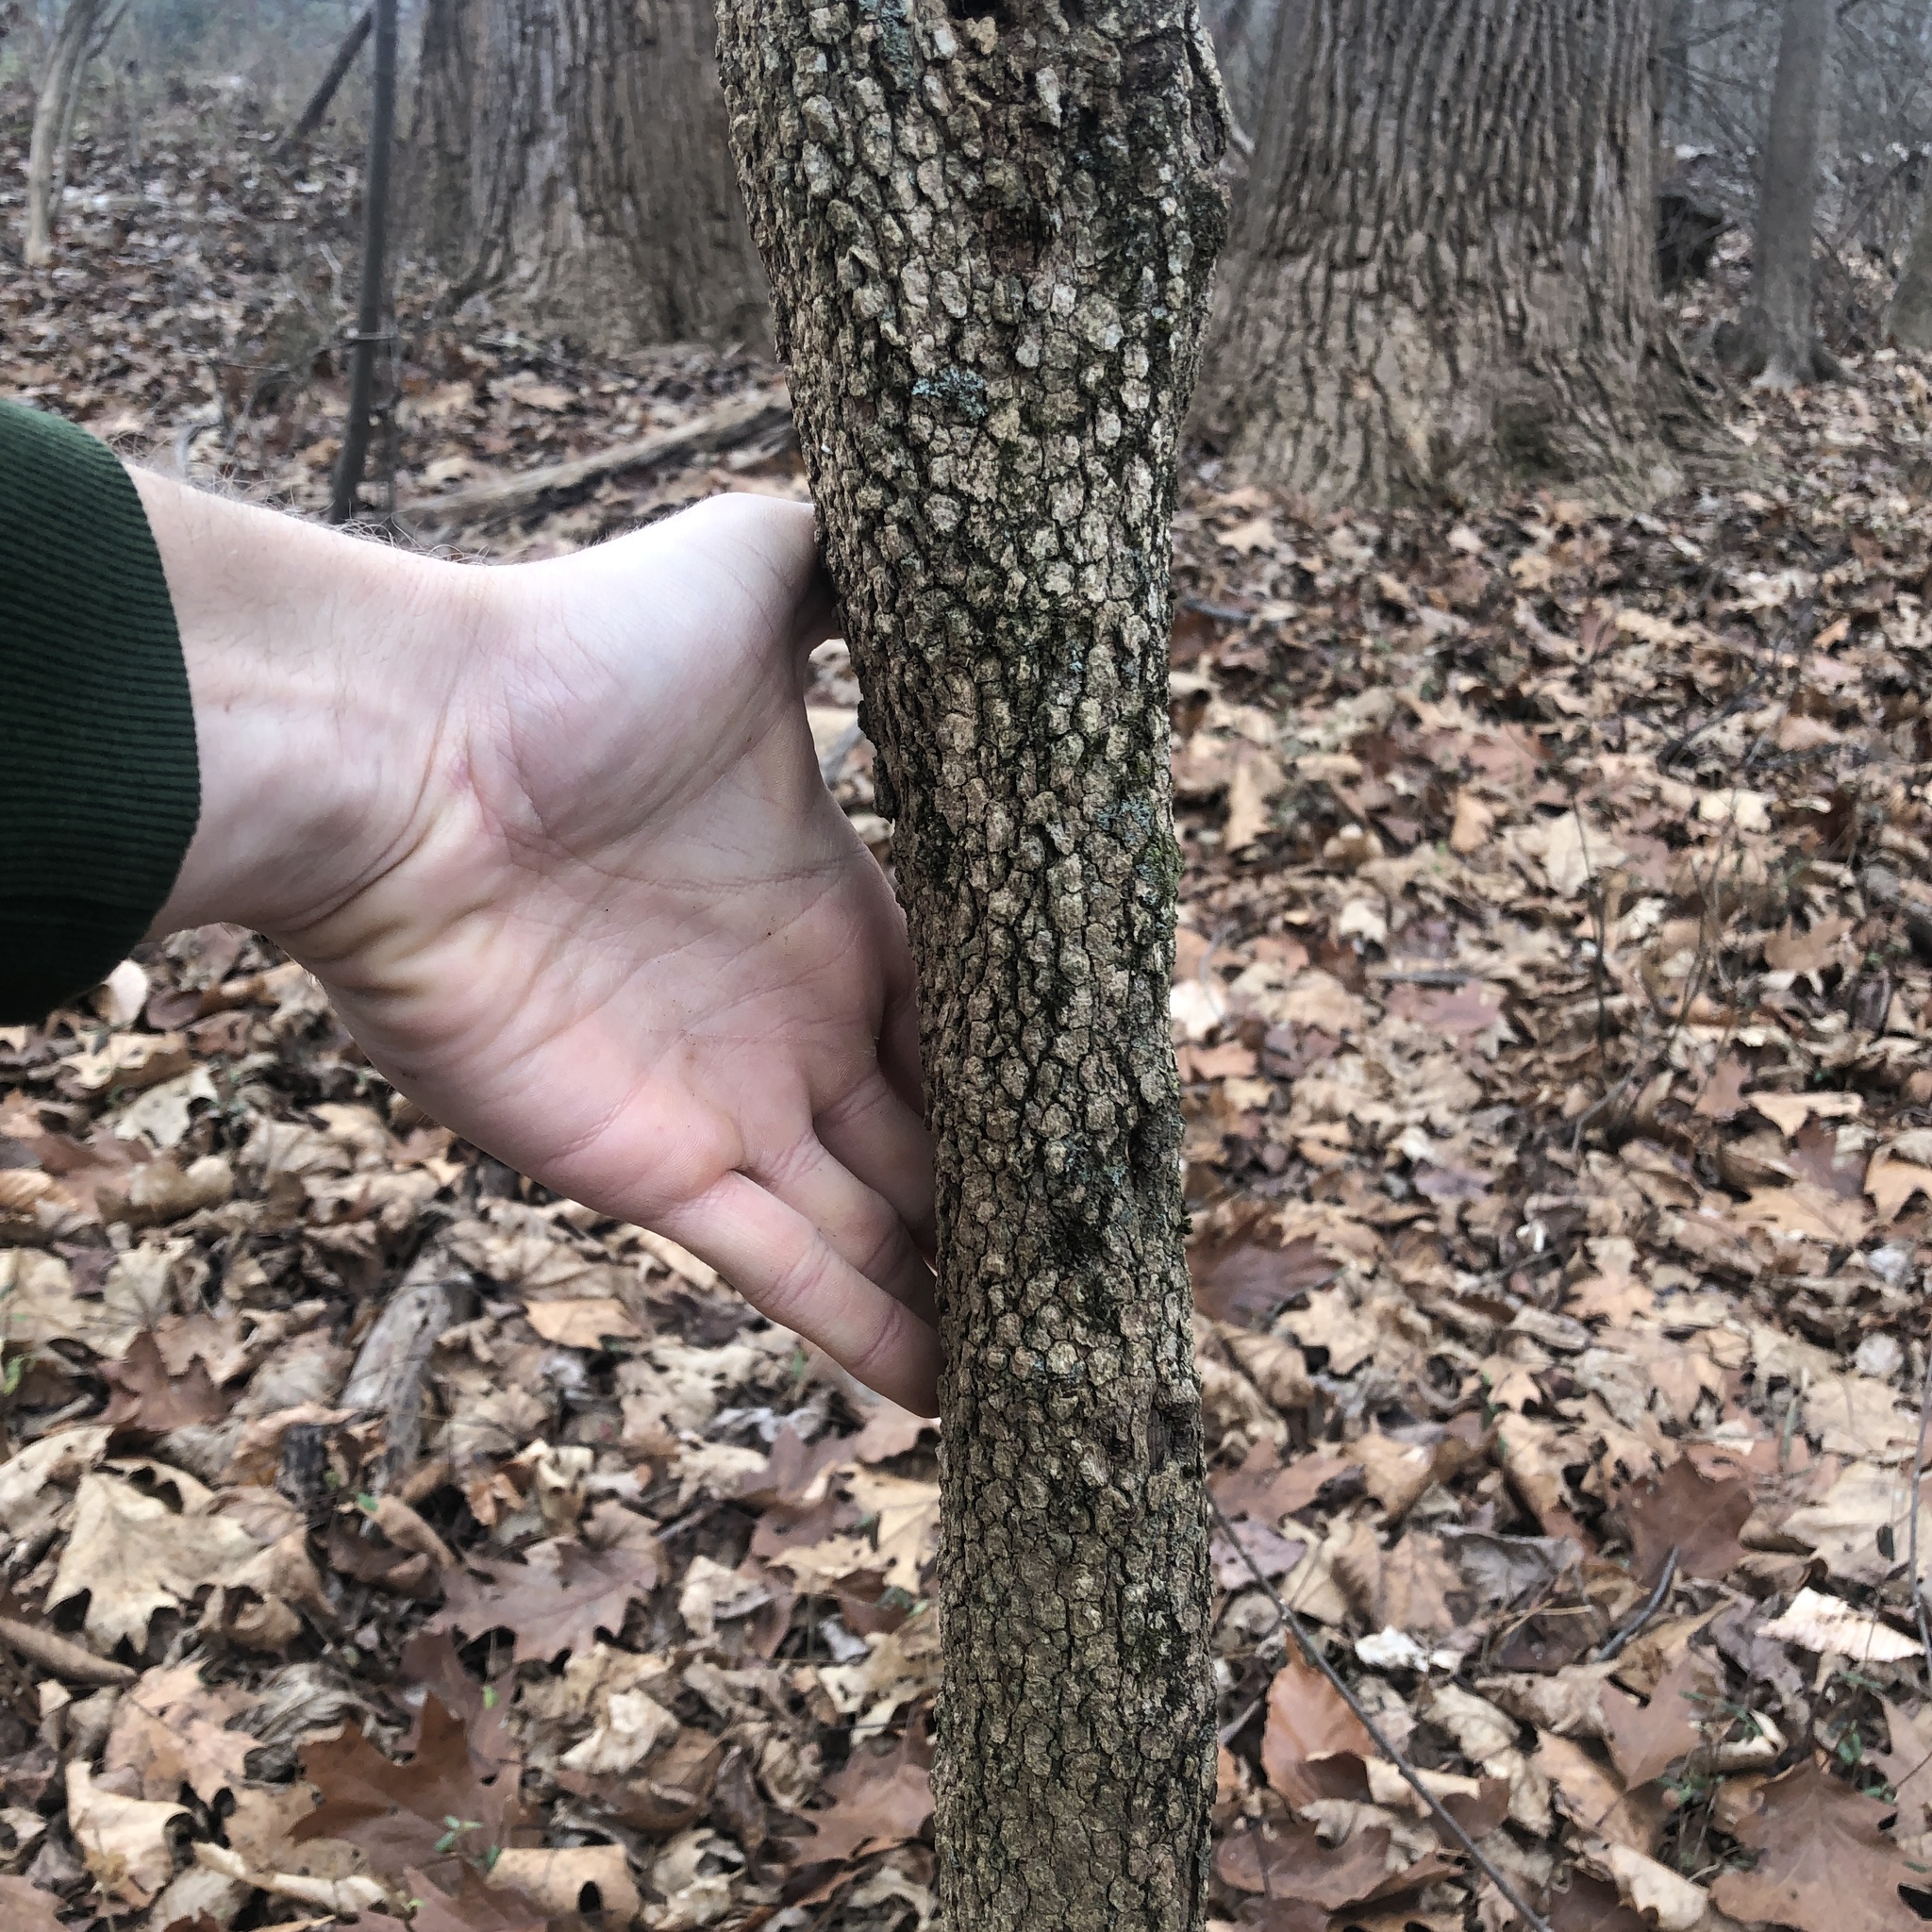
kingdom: Plantae
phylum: Tracheophyta
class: Magnoliopsida
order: Dipsacales
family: Viburnaceae
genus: Viburnum
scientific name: Viburnum prunifolium
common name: Black haw
